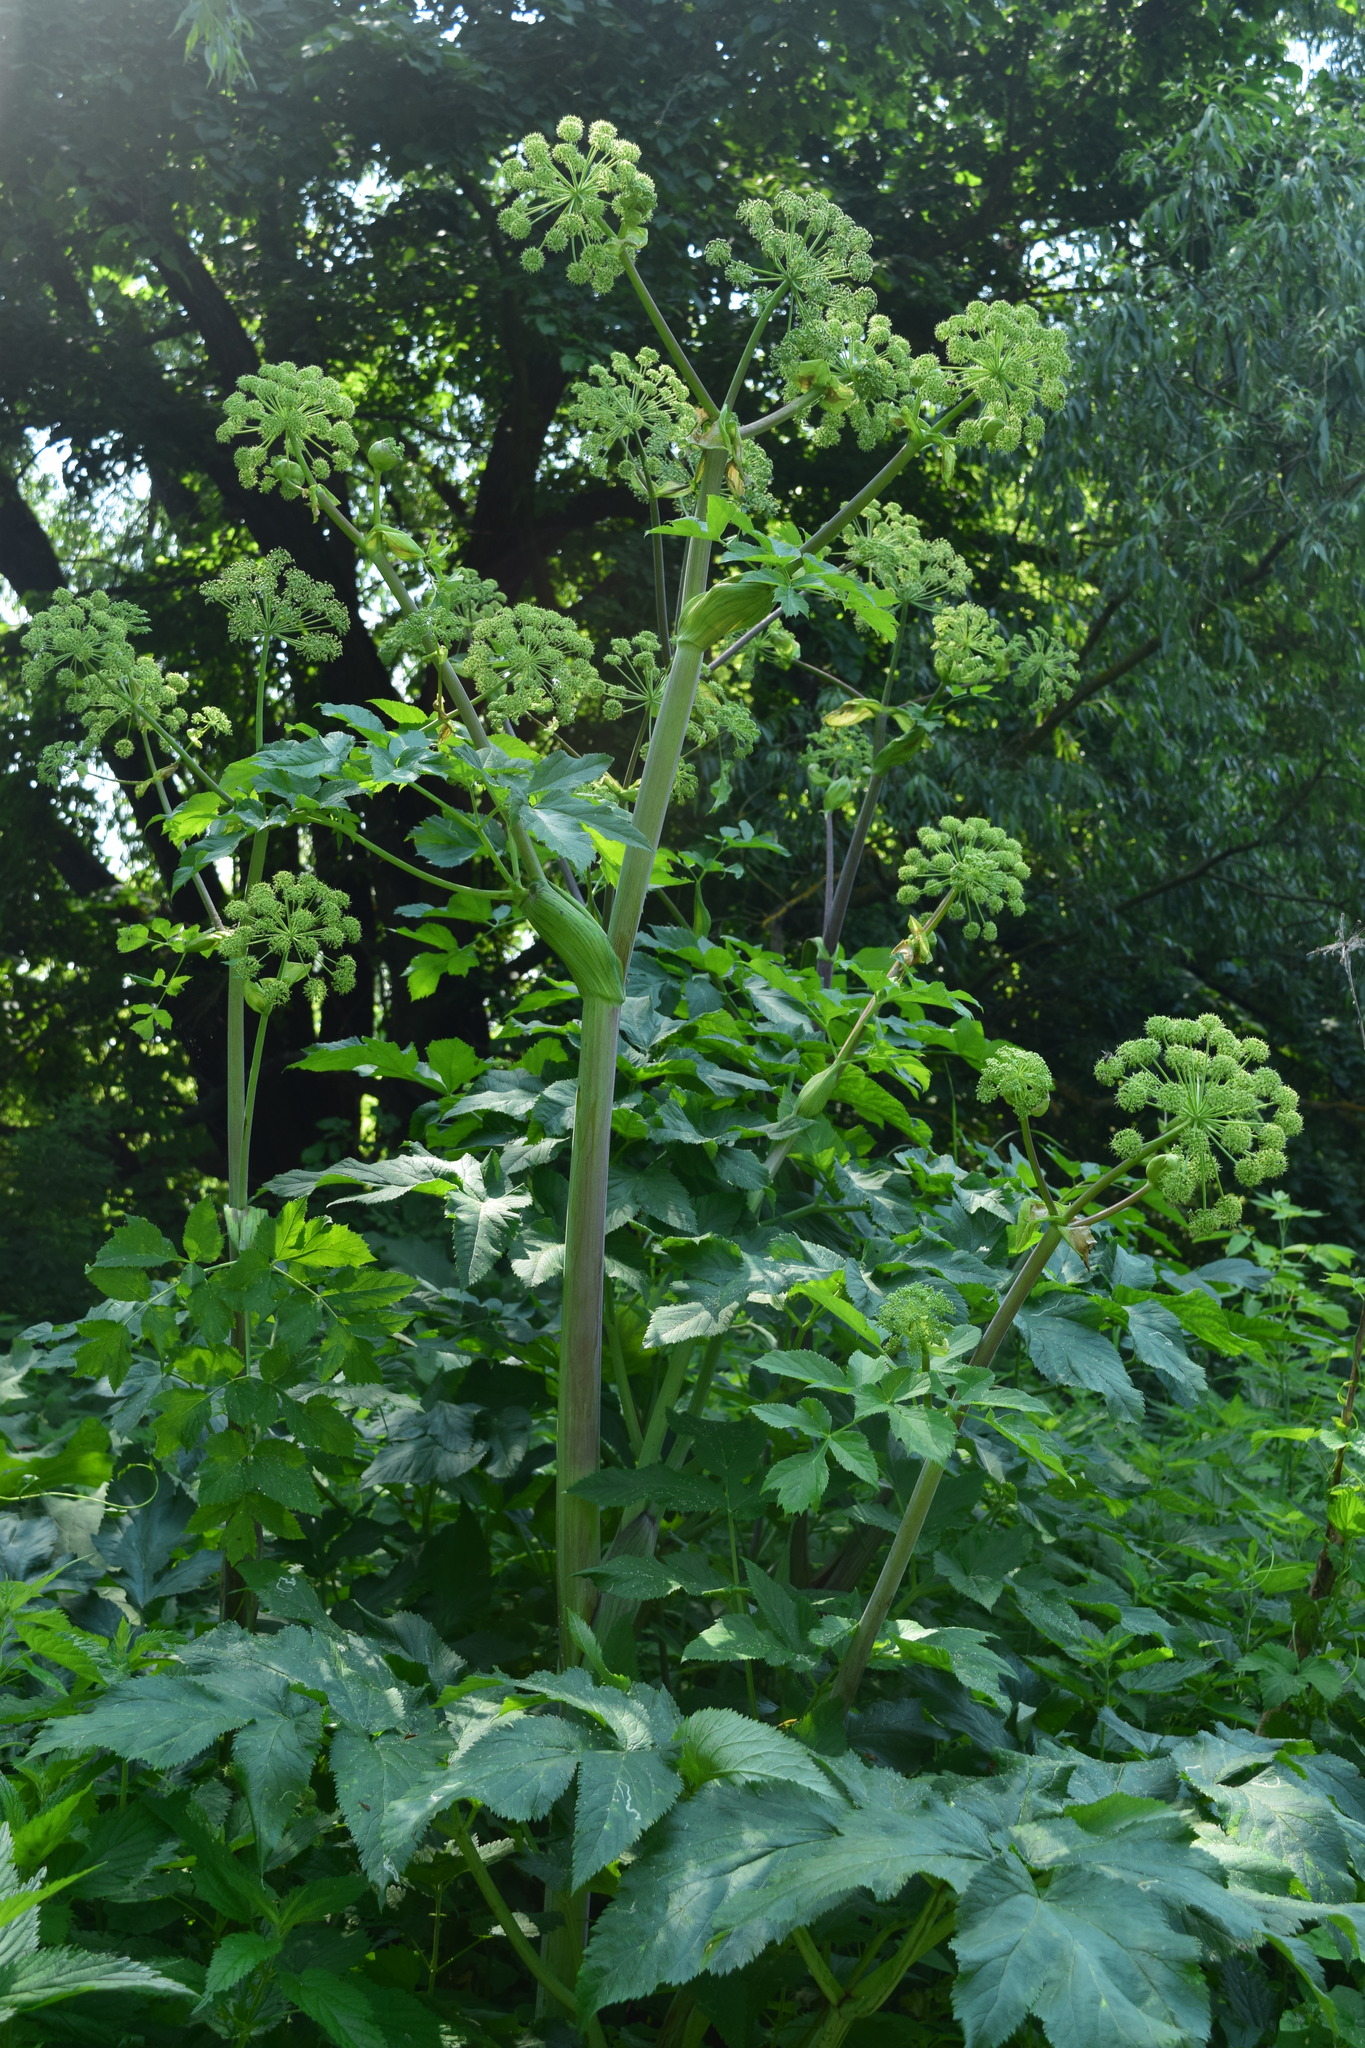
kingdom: Plantae
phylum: Tracheophyta
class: Magnoliopsida
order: Apiales
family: Apiaceae
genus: Angelica
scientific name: Angelica archangelica
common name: Garden angelica
